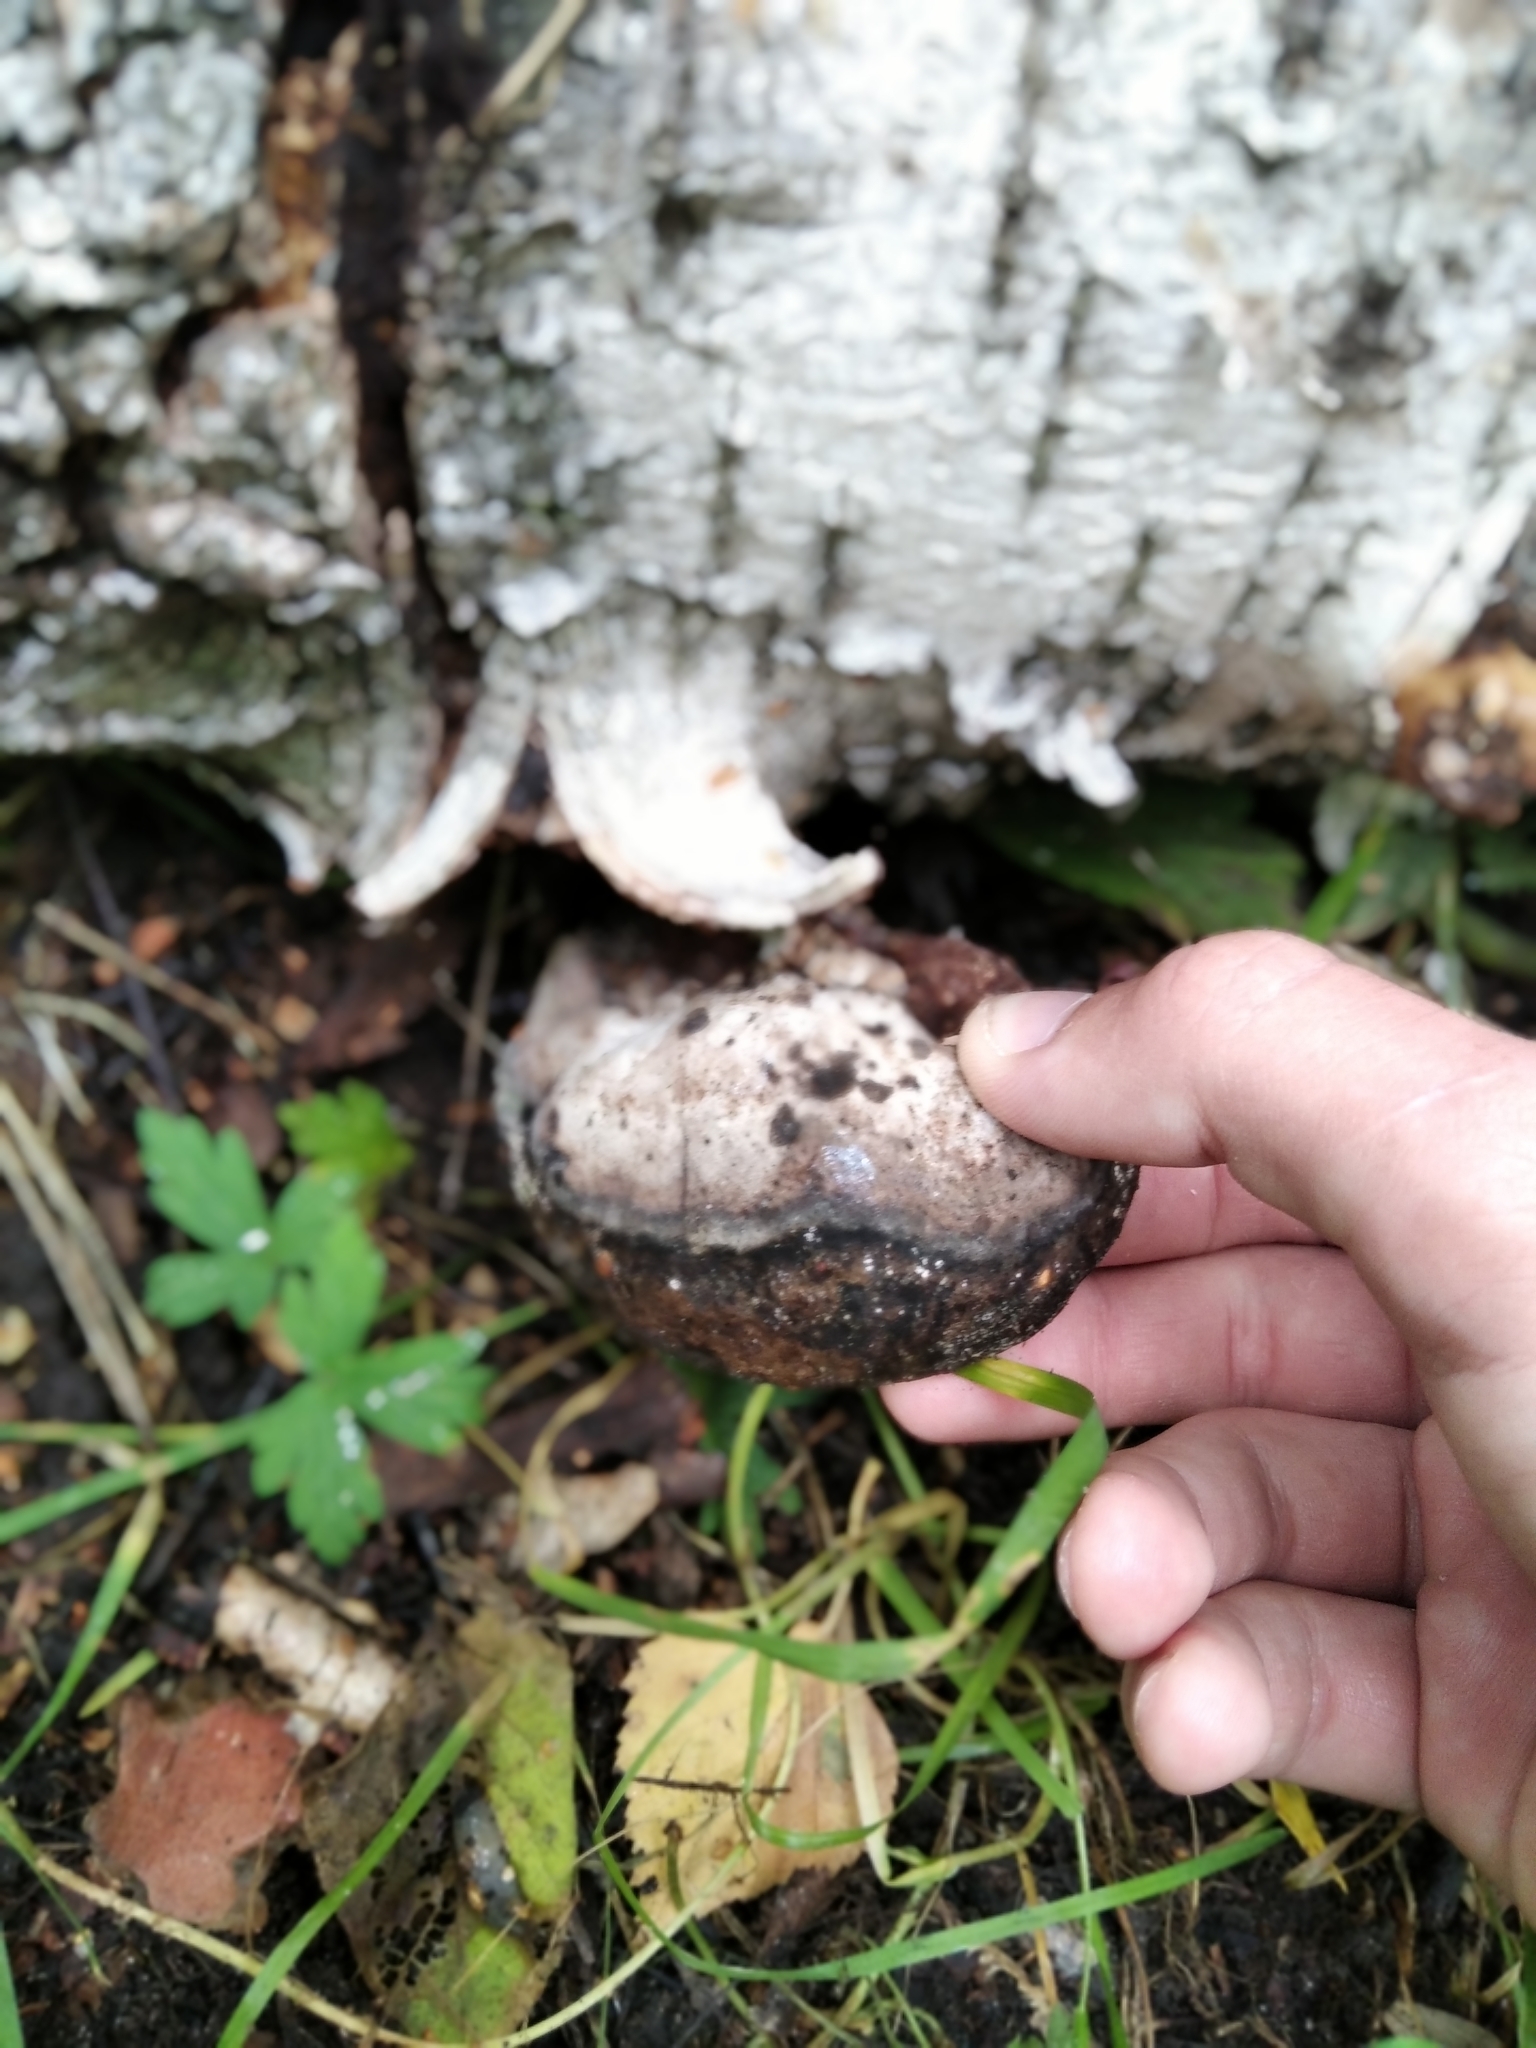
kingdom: Fungi
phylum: Basidiomycota
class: Agaricomycetes
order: Polyporales
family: Polyporaceae
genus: Fomes
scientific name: Fomes fomentarius
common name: Hoof fungus
